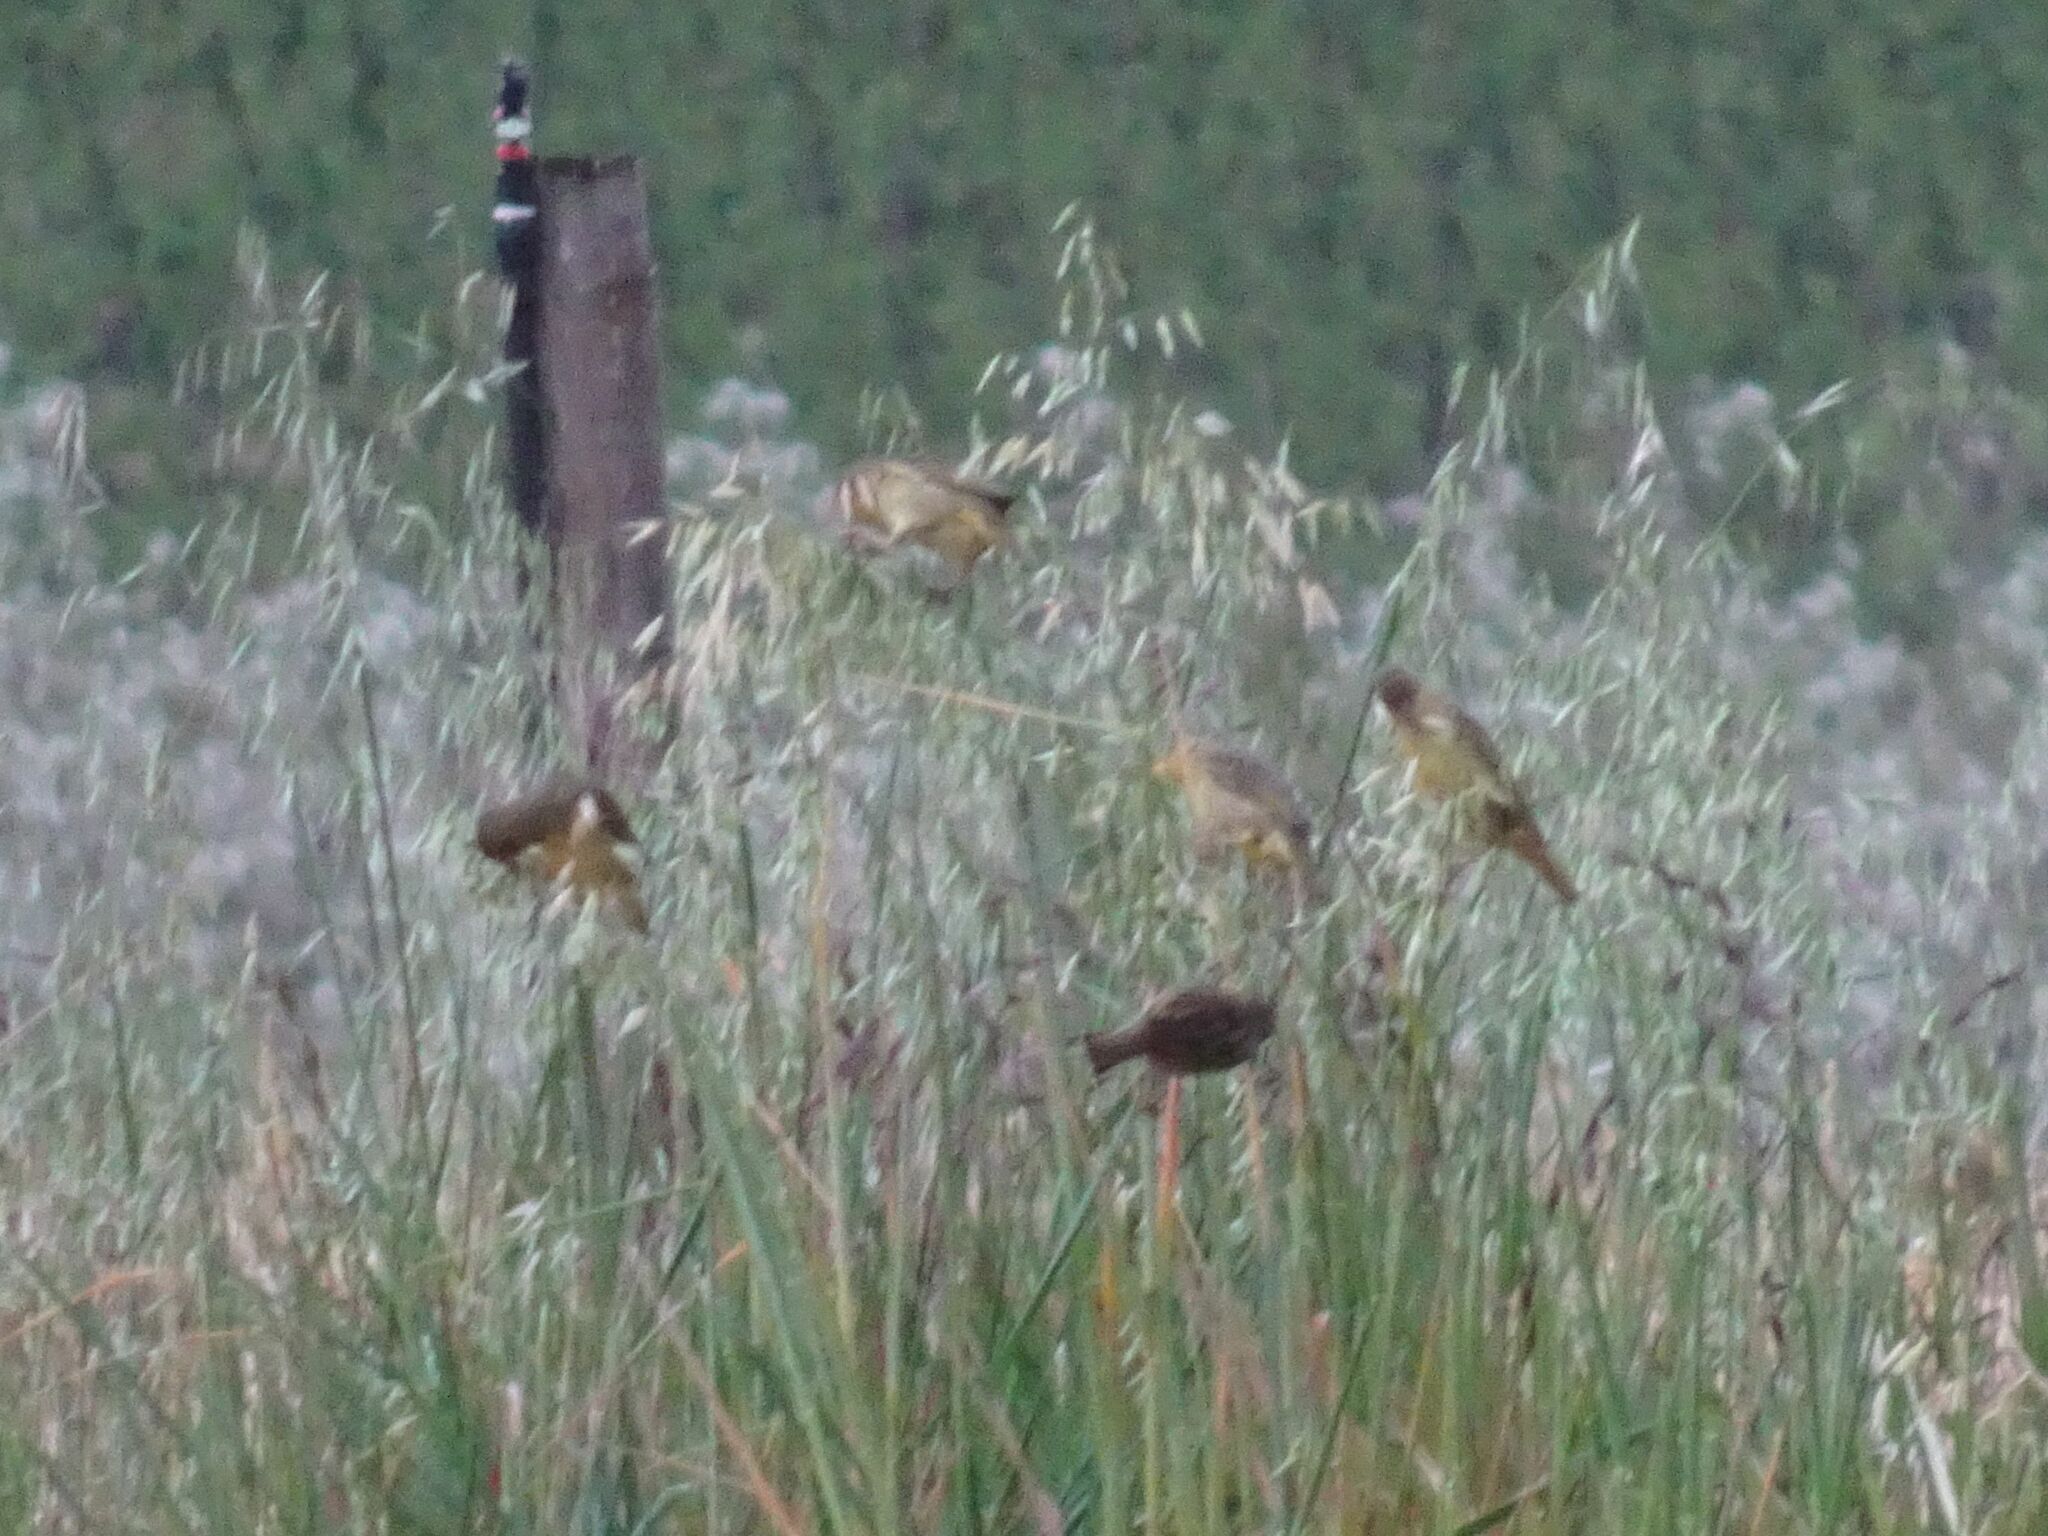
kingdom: Animalia
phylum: Chordata
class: Aves
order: Passeriformes
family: Ploceidae
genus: Ploceus
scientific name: Ploceus capensis
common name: Cape weaver
